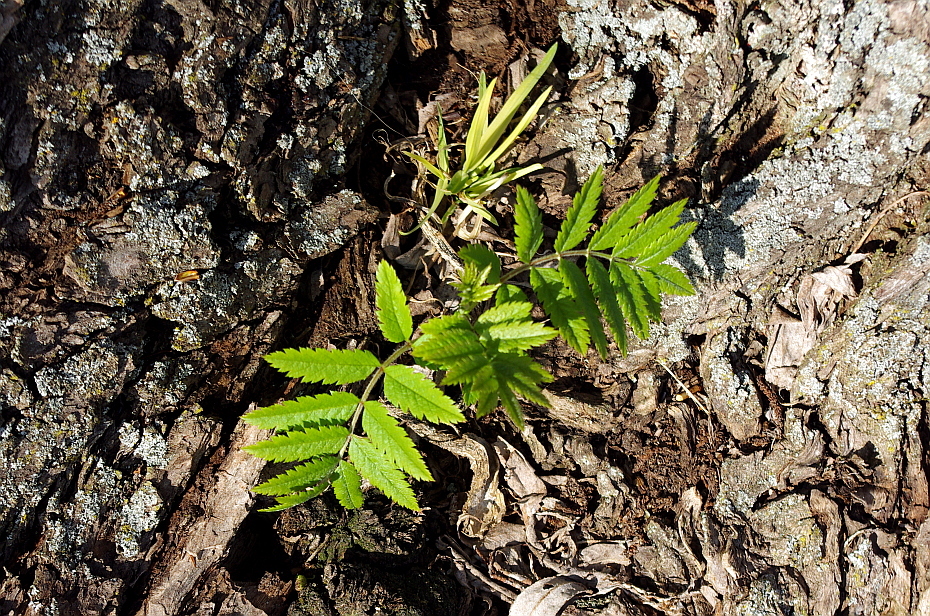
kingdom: Plantae
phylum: Tracheophyta
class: Magnoliopsida
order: Rosales
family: Rosaceae
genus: Sorbus
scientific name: Sorbus aucuparia
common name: Rowan
